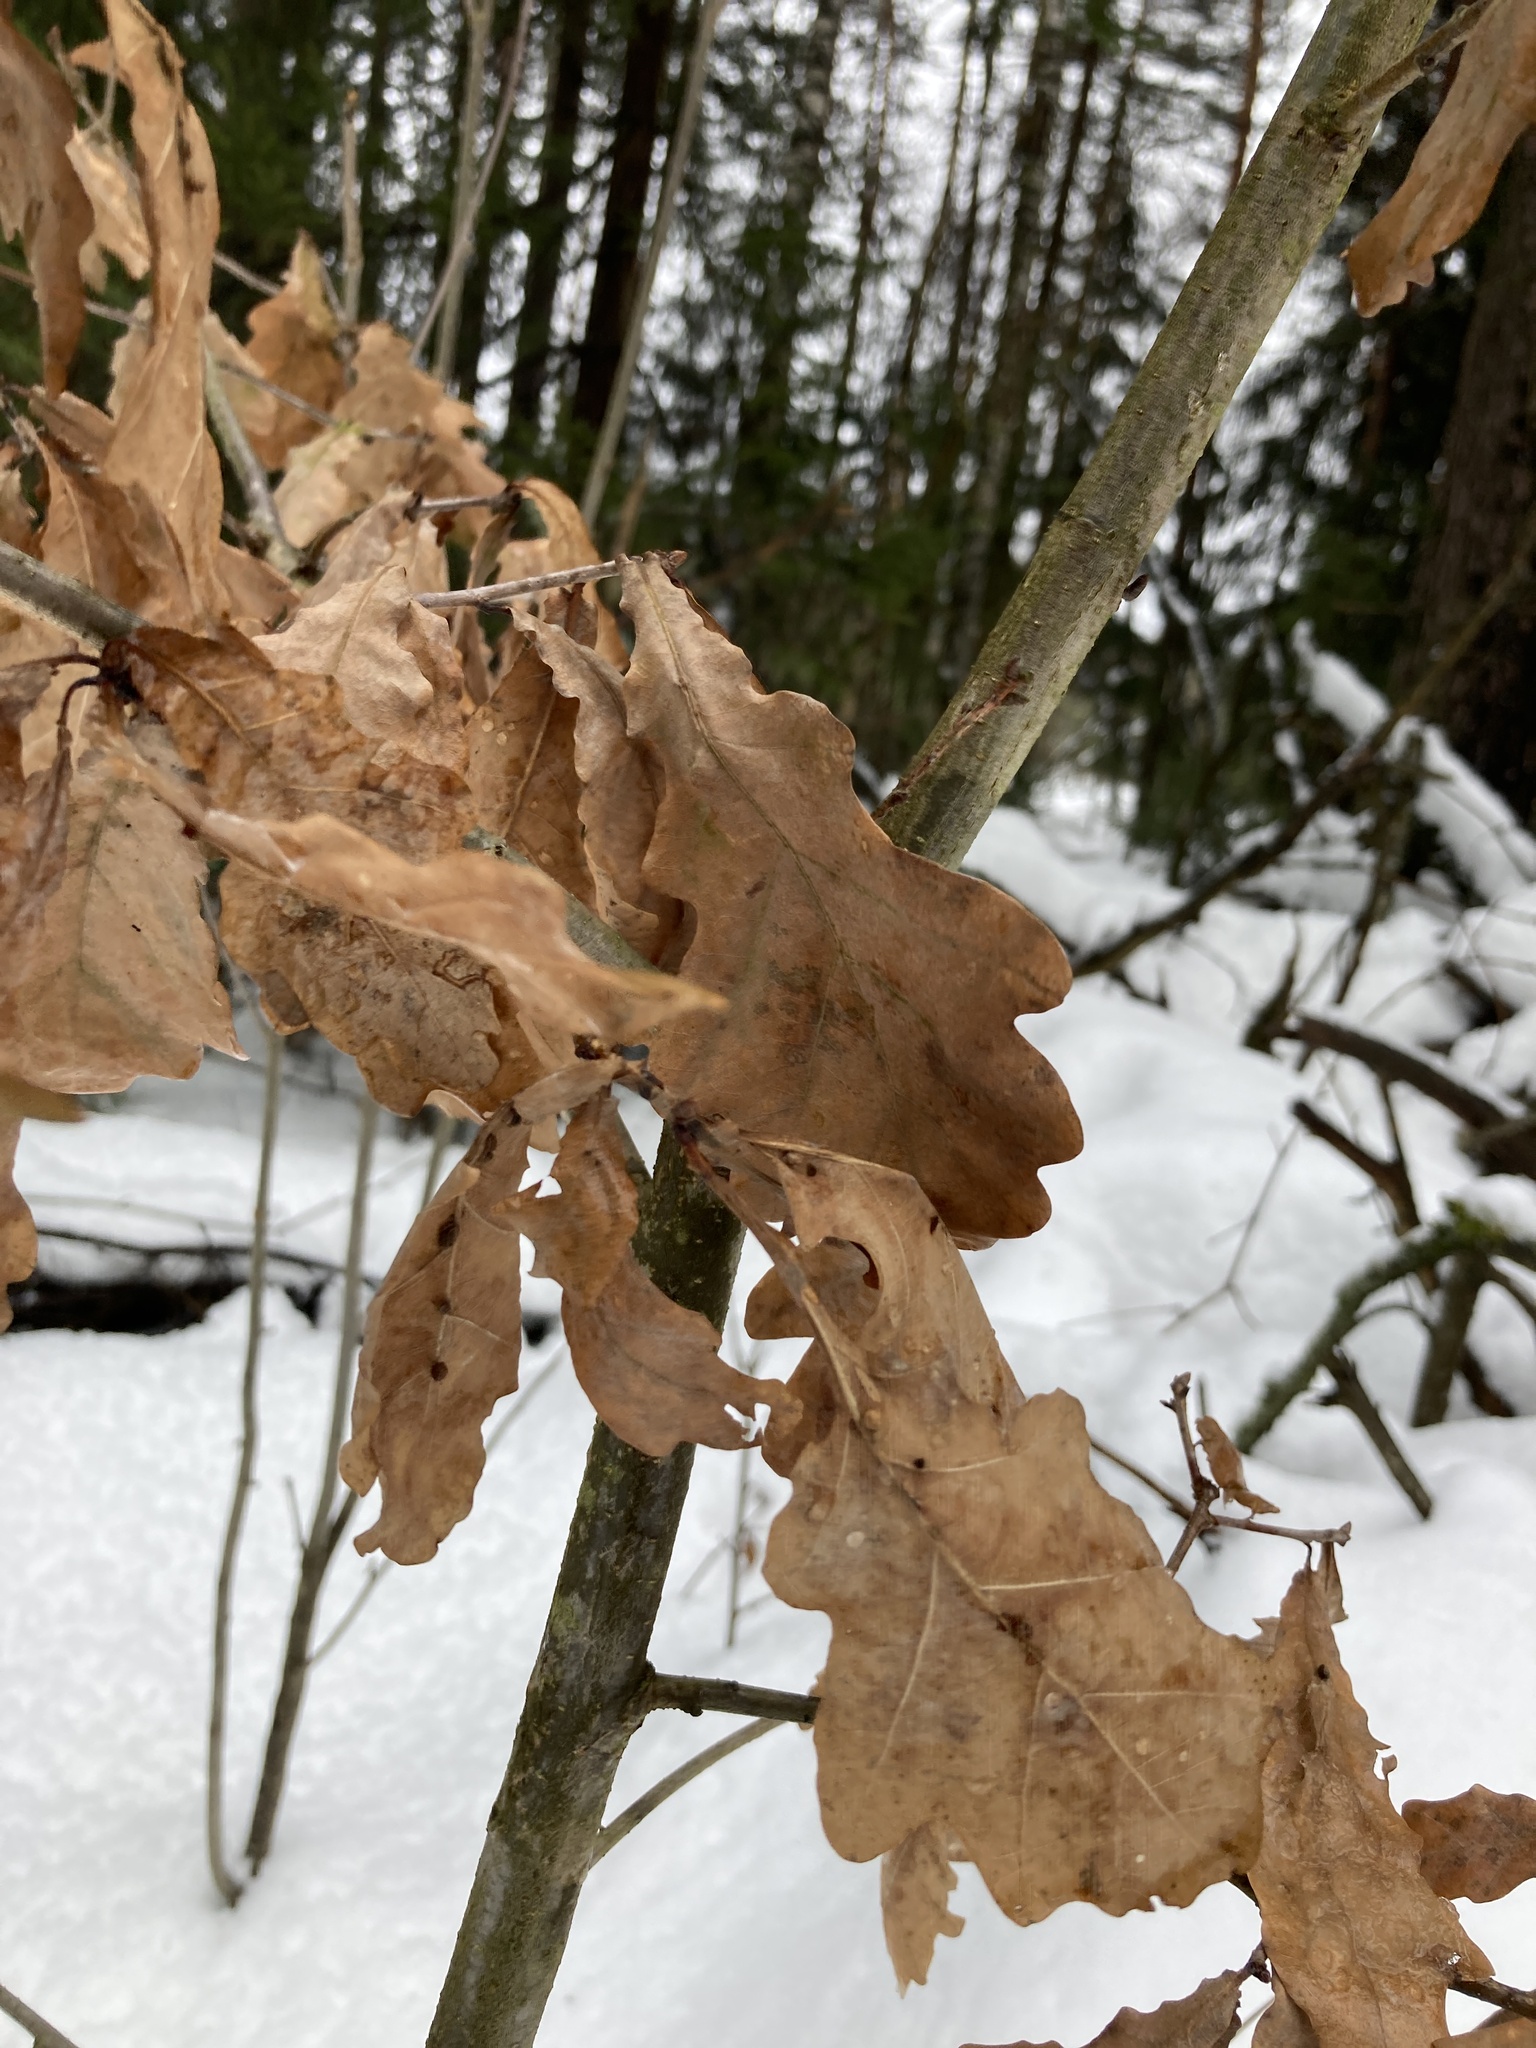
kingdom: Plantae
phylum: Tracheophyta
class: Magnoliopsida
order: Fagales
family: Fagaceae
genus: Quercus
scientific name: Quercus robur
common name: Pedunculate oak
